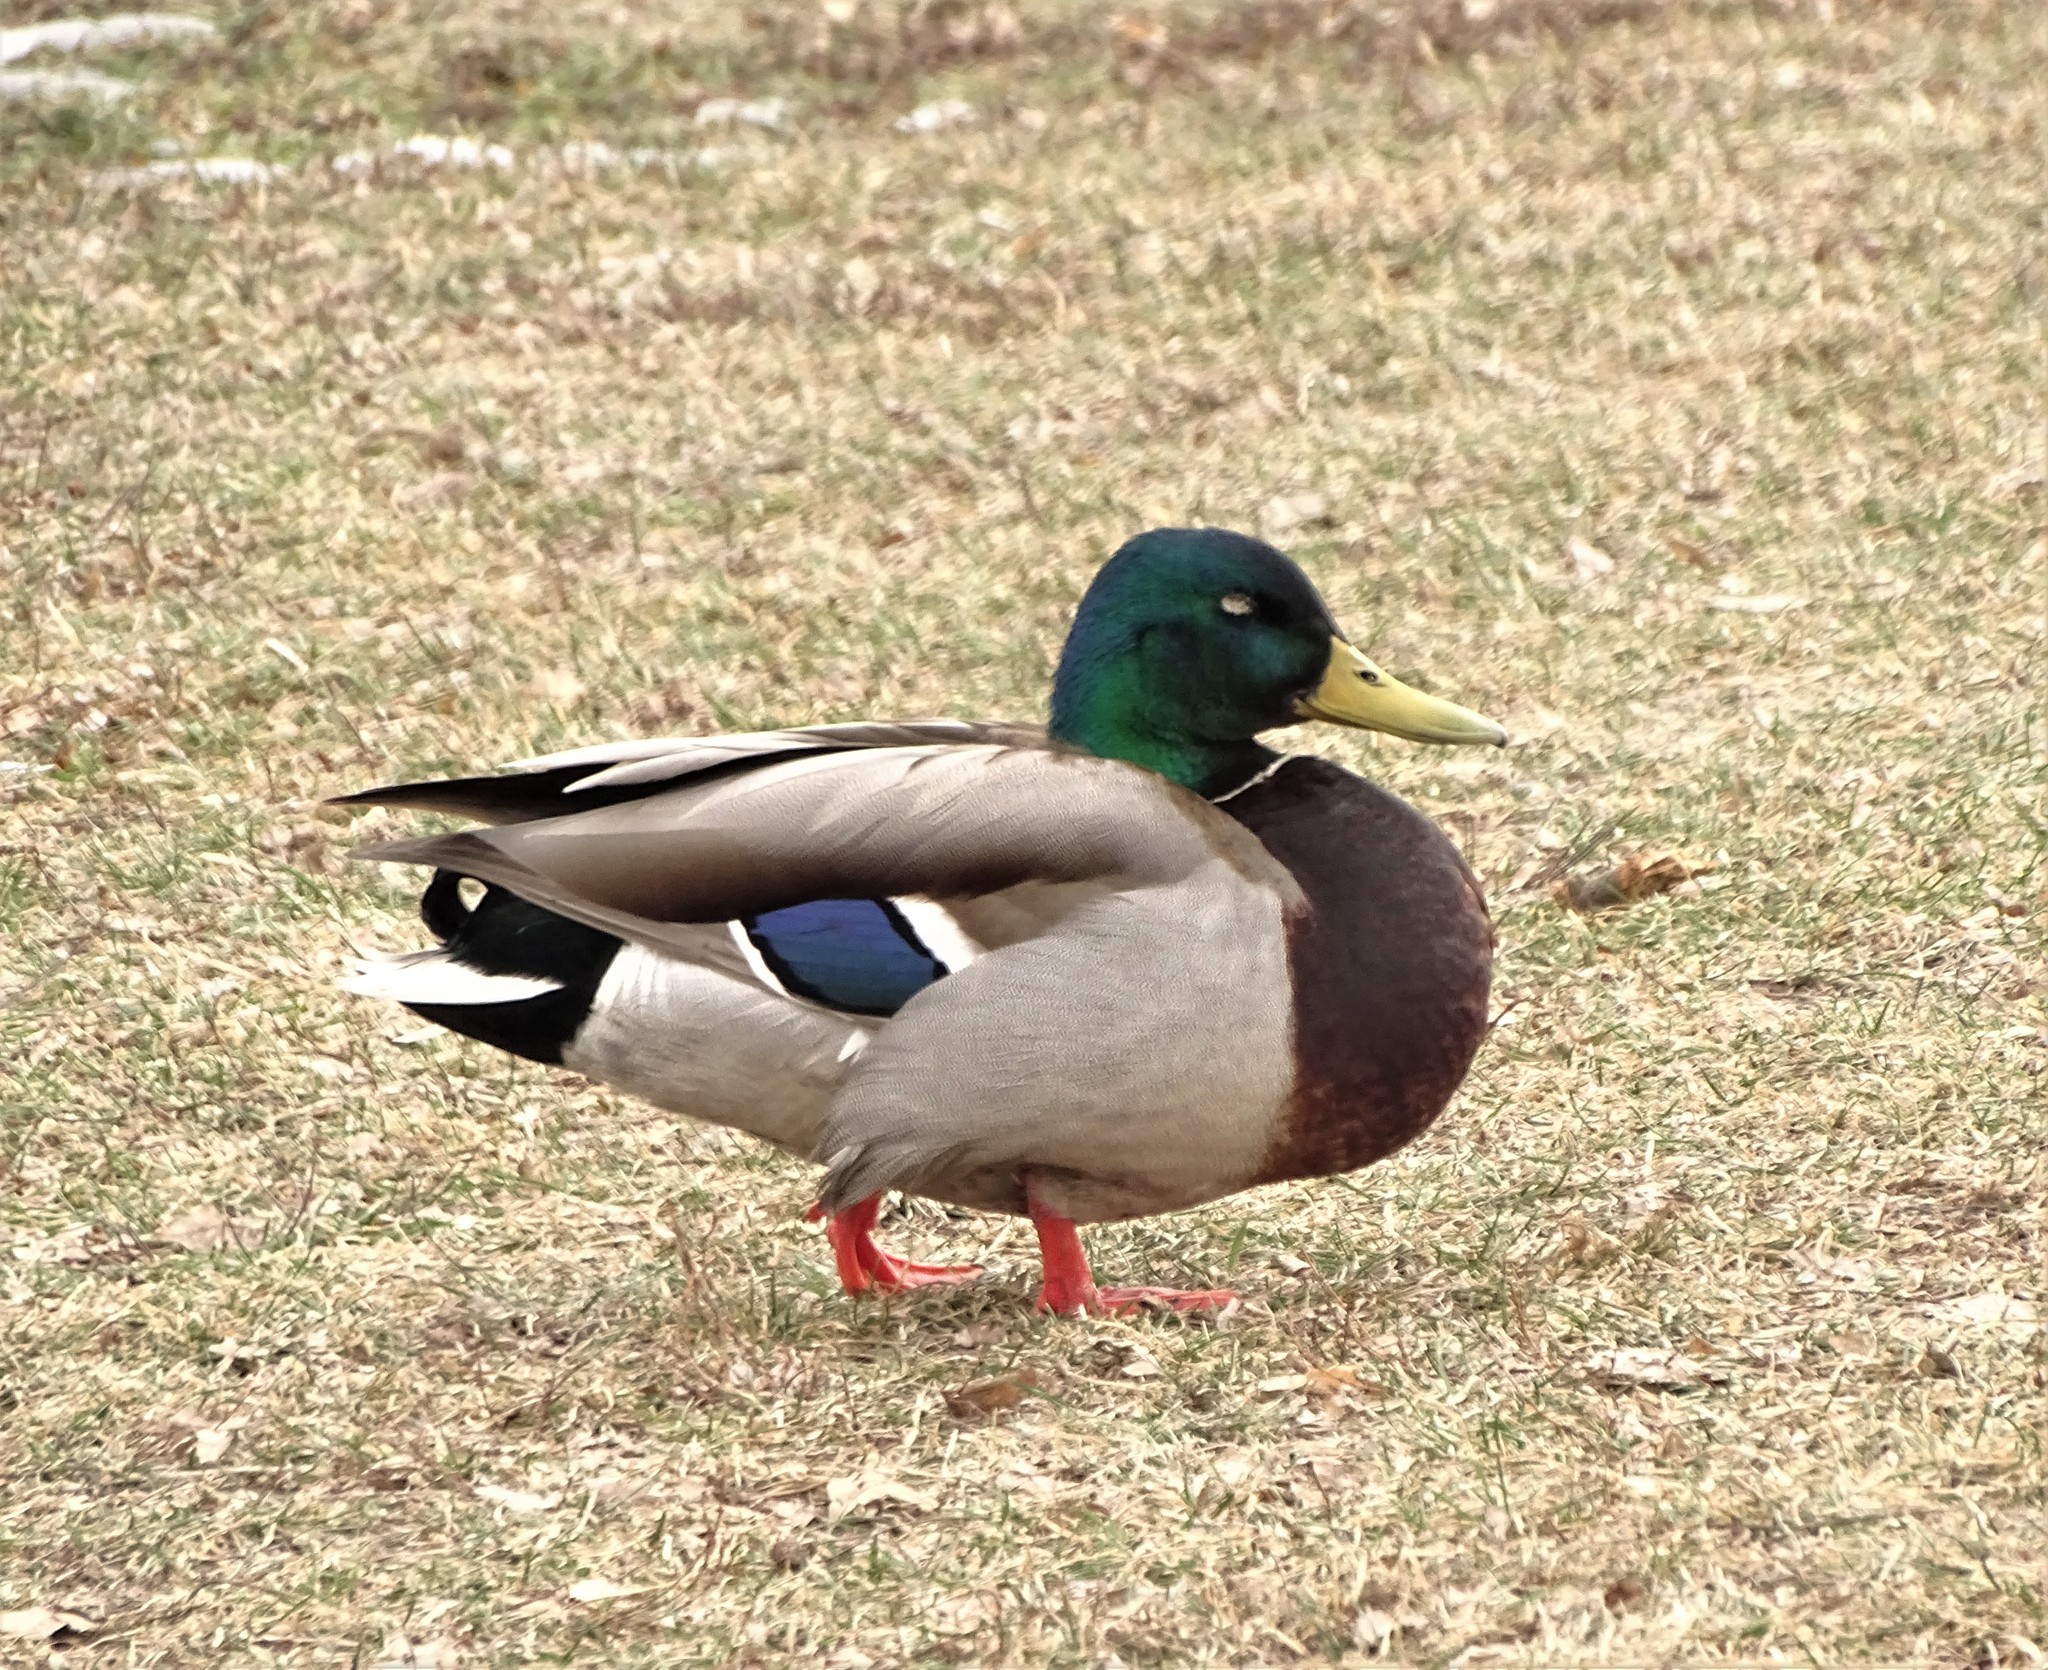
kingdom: Animalia
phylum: Chordata
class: Aves
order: Anseriformes
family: Anatidae
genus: Anas
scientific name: Anas platyrhynchos
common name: Mallard
